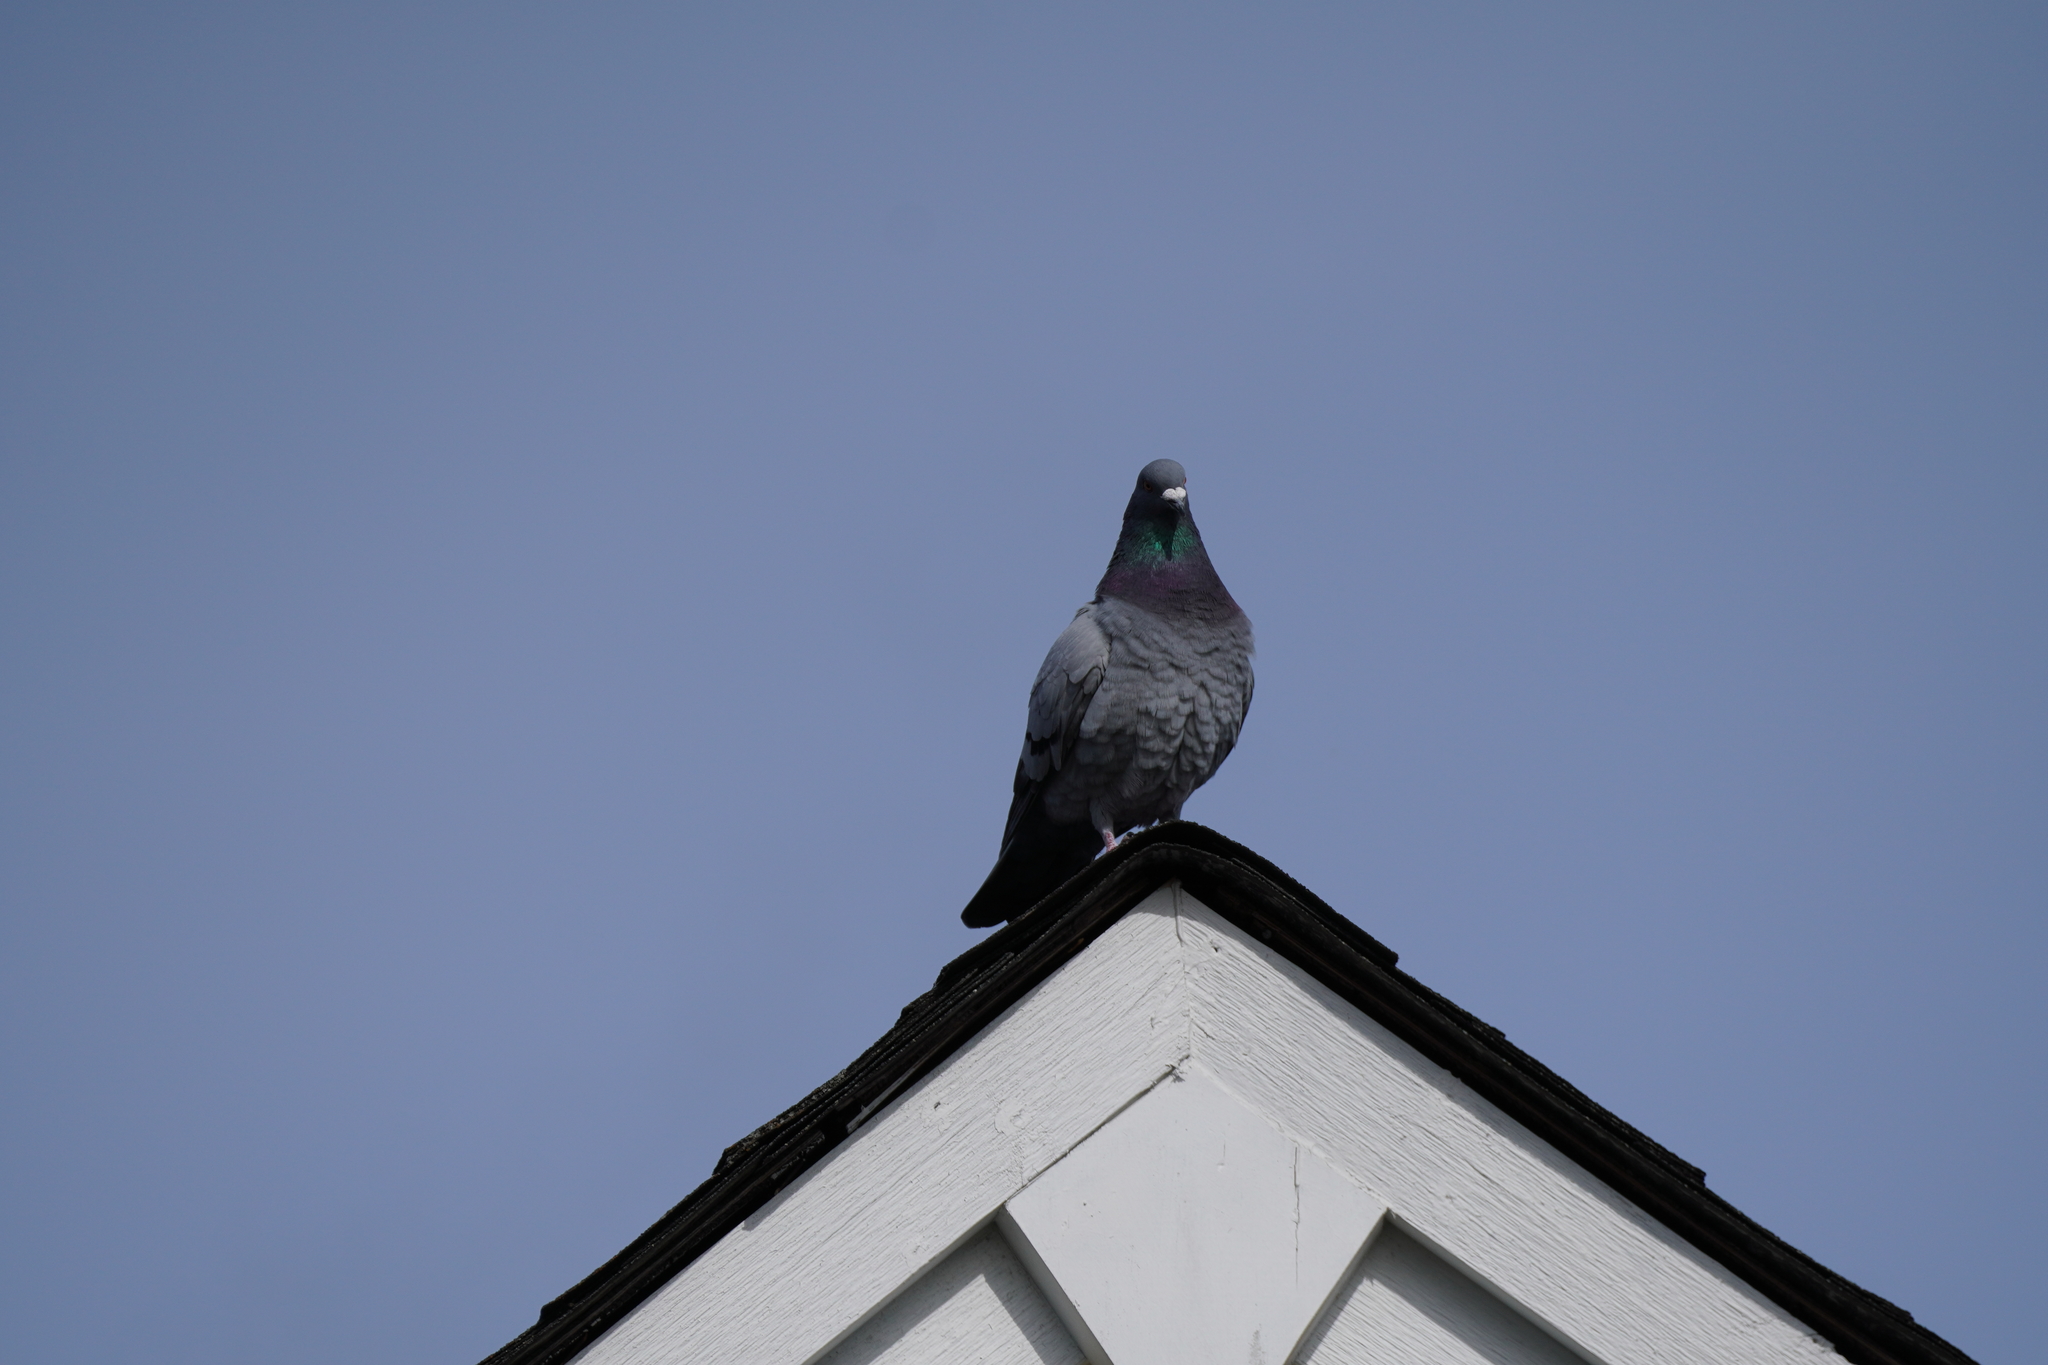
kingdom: Animalia
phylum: Chordata
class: Aves
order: Columbiformes
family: Columbidae
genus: Columba
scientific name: Columba livia
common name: Rock pigeon
